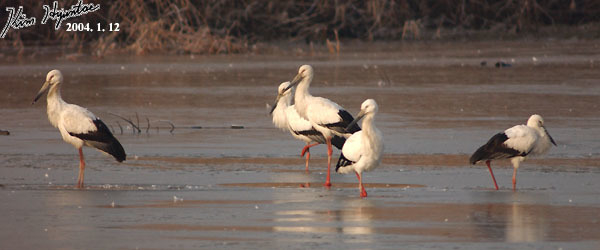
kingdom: Animalia
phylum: Chordata
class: Aves
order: Ciconiiformes
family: Ciconiidae
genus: Ciconia
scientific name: Ciconia boyciana
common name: Oriental stork
